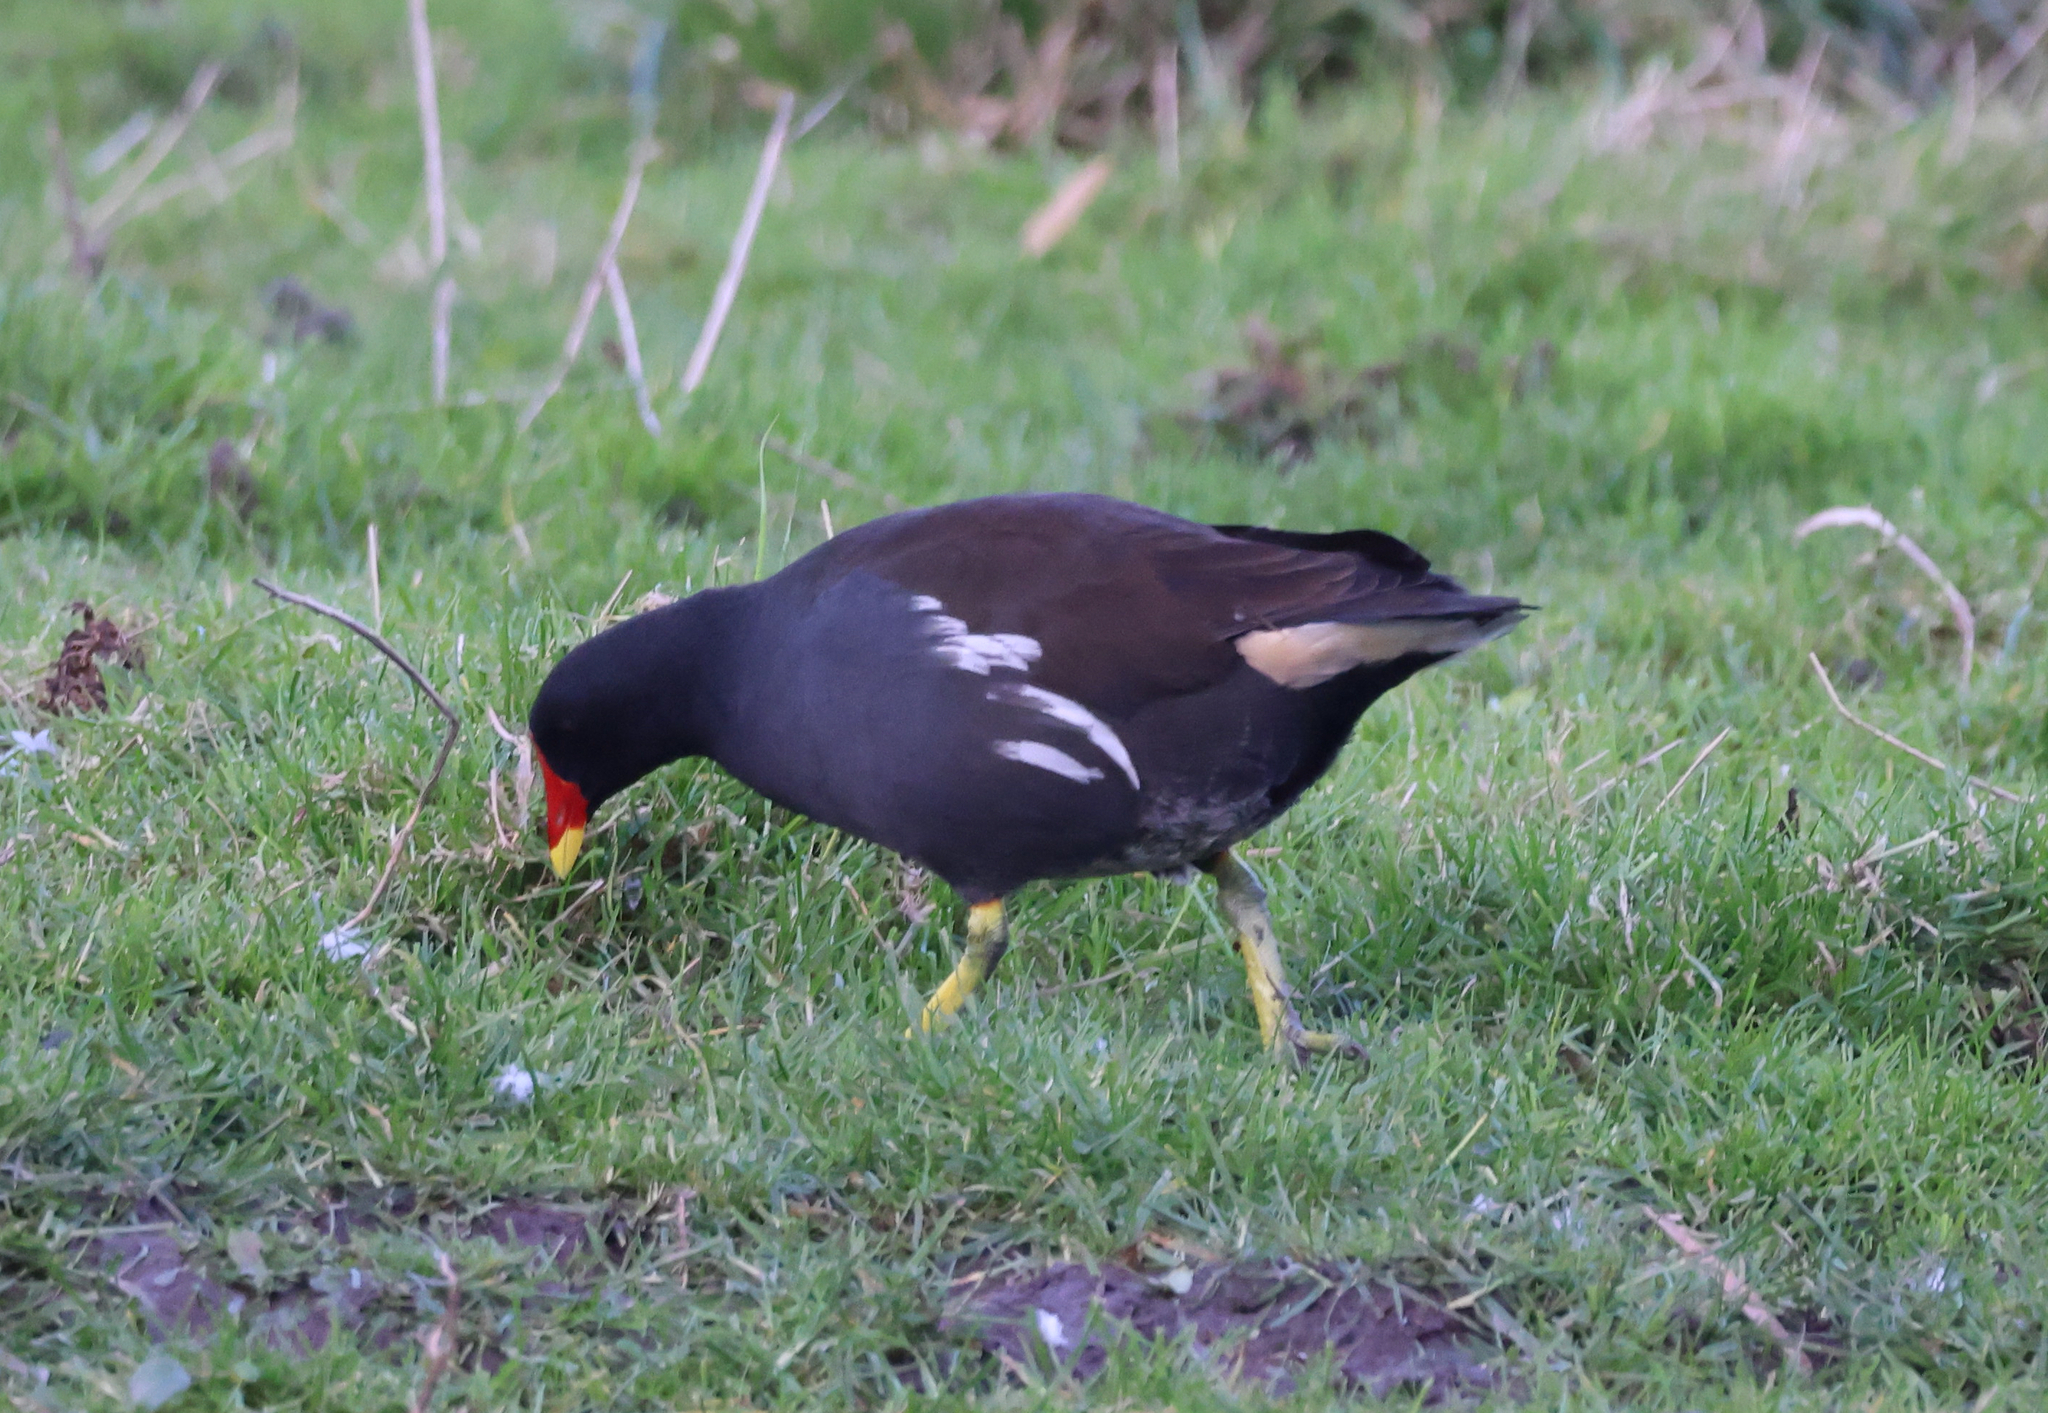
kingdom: Animalia
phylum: Chordata
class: Aves
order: Gruiformes
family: Rallidae
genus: Gallinula
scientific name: Gallinula chloropus
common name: Common moorhen
